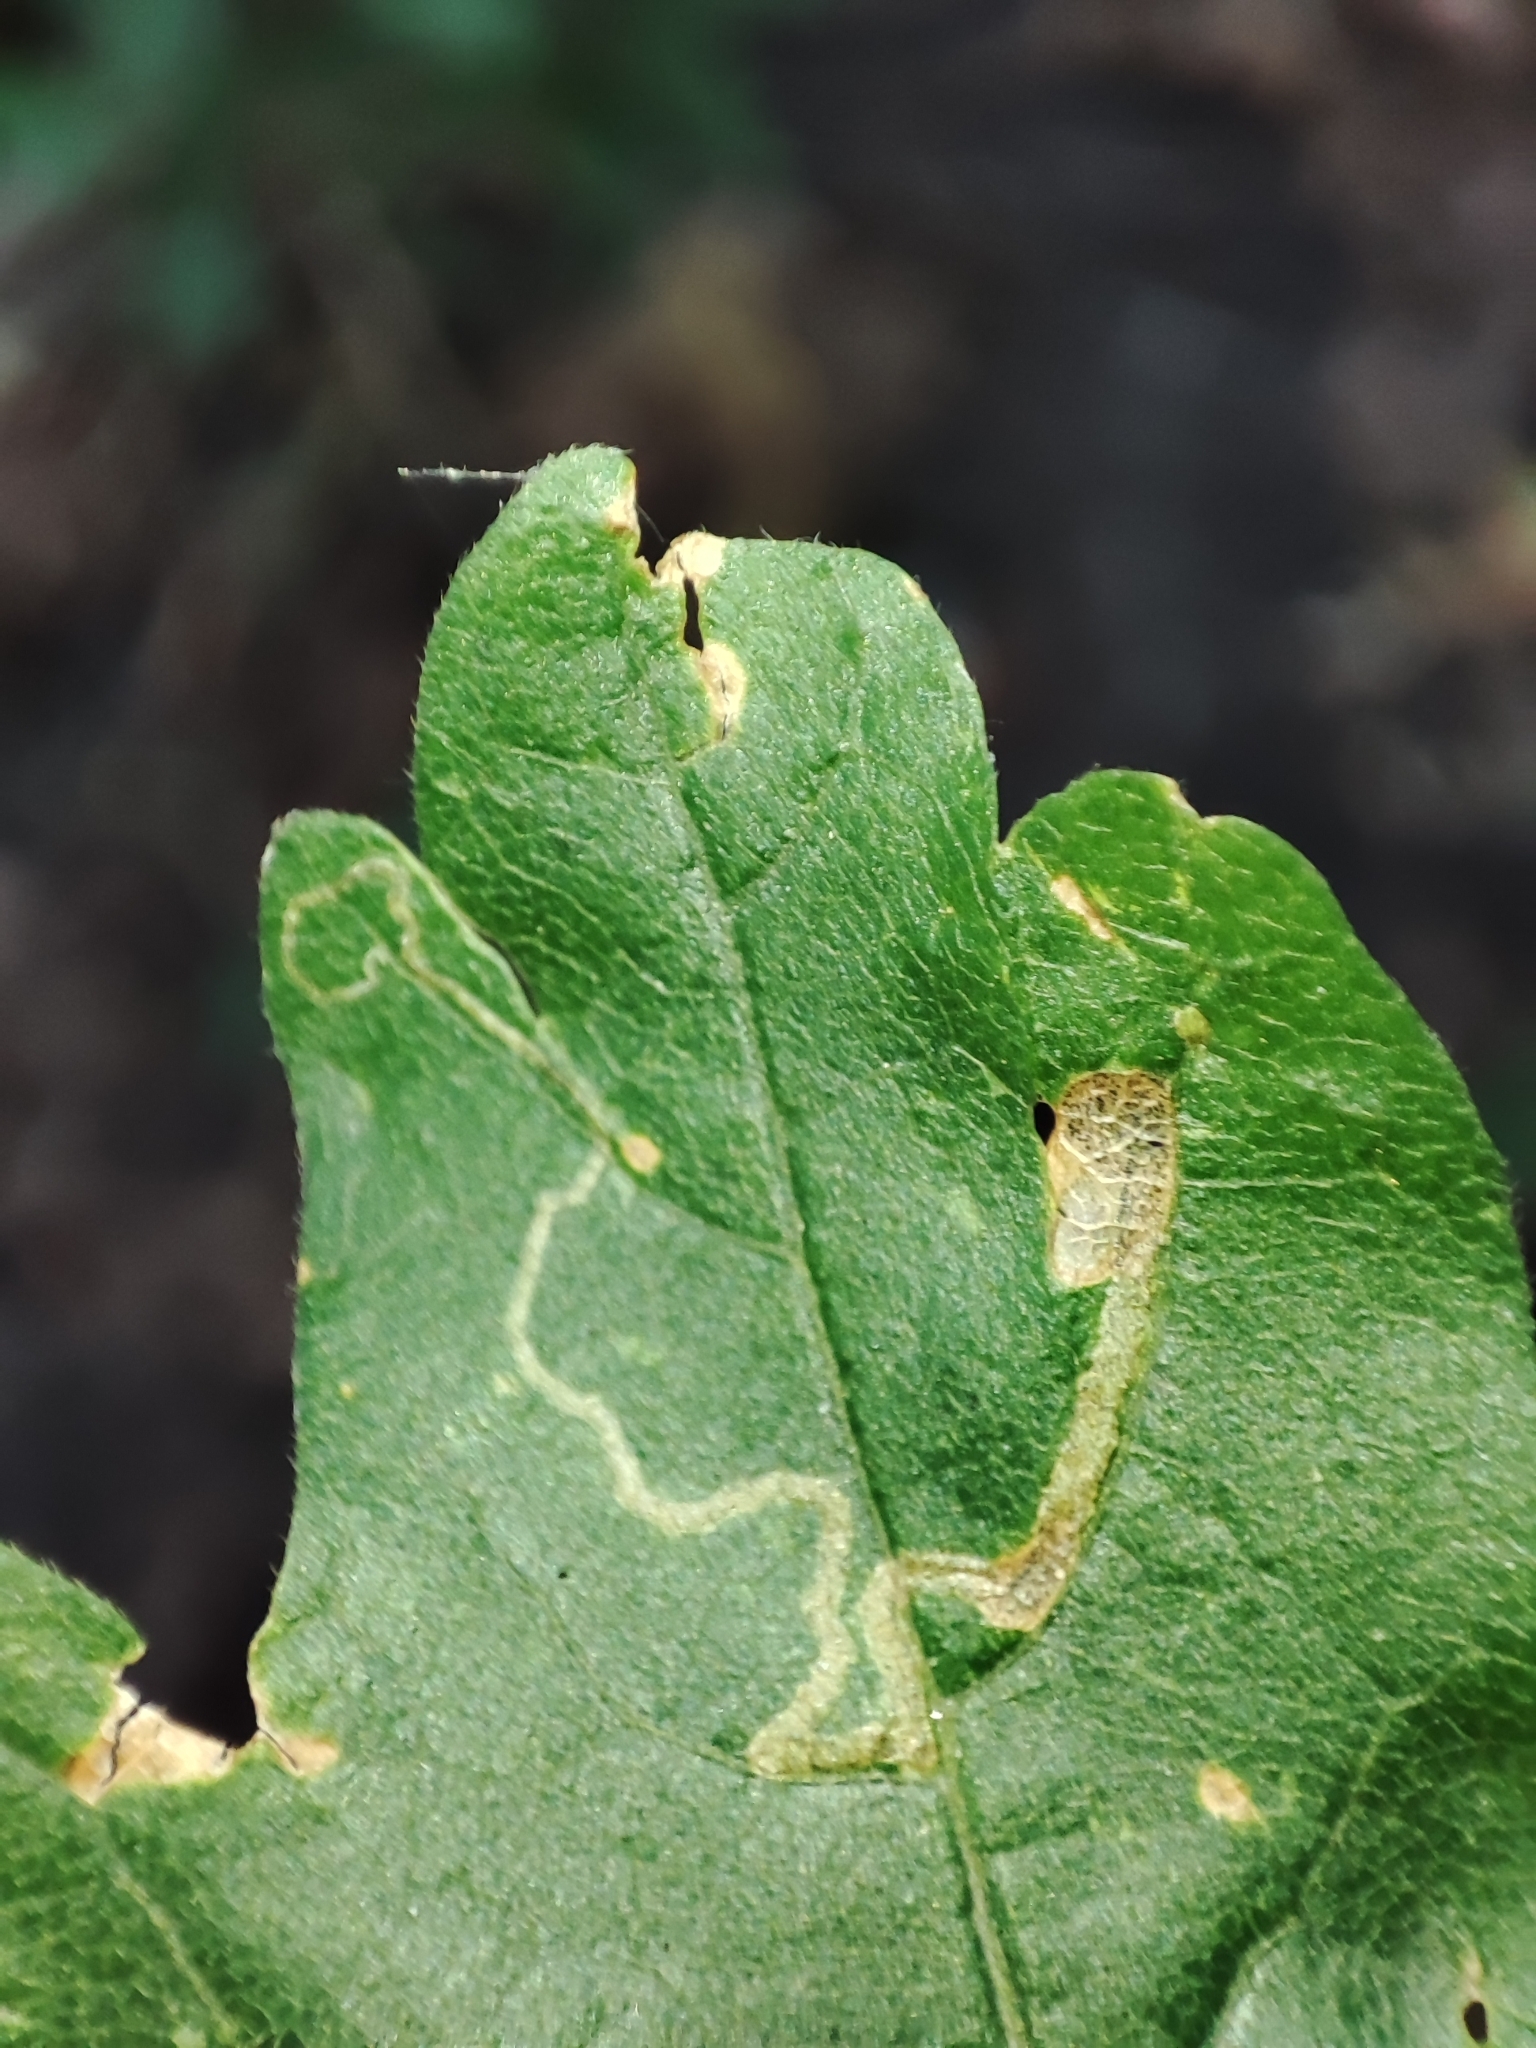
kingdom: Plantae
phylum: Tracheophyta
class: Magnoliopsida
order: Sapindales
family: Sapindaceae
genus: Acer
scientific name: Acer campestre
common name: Field maple
